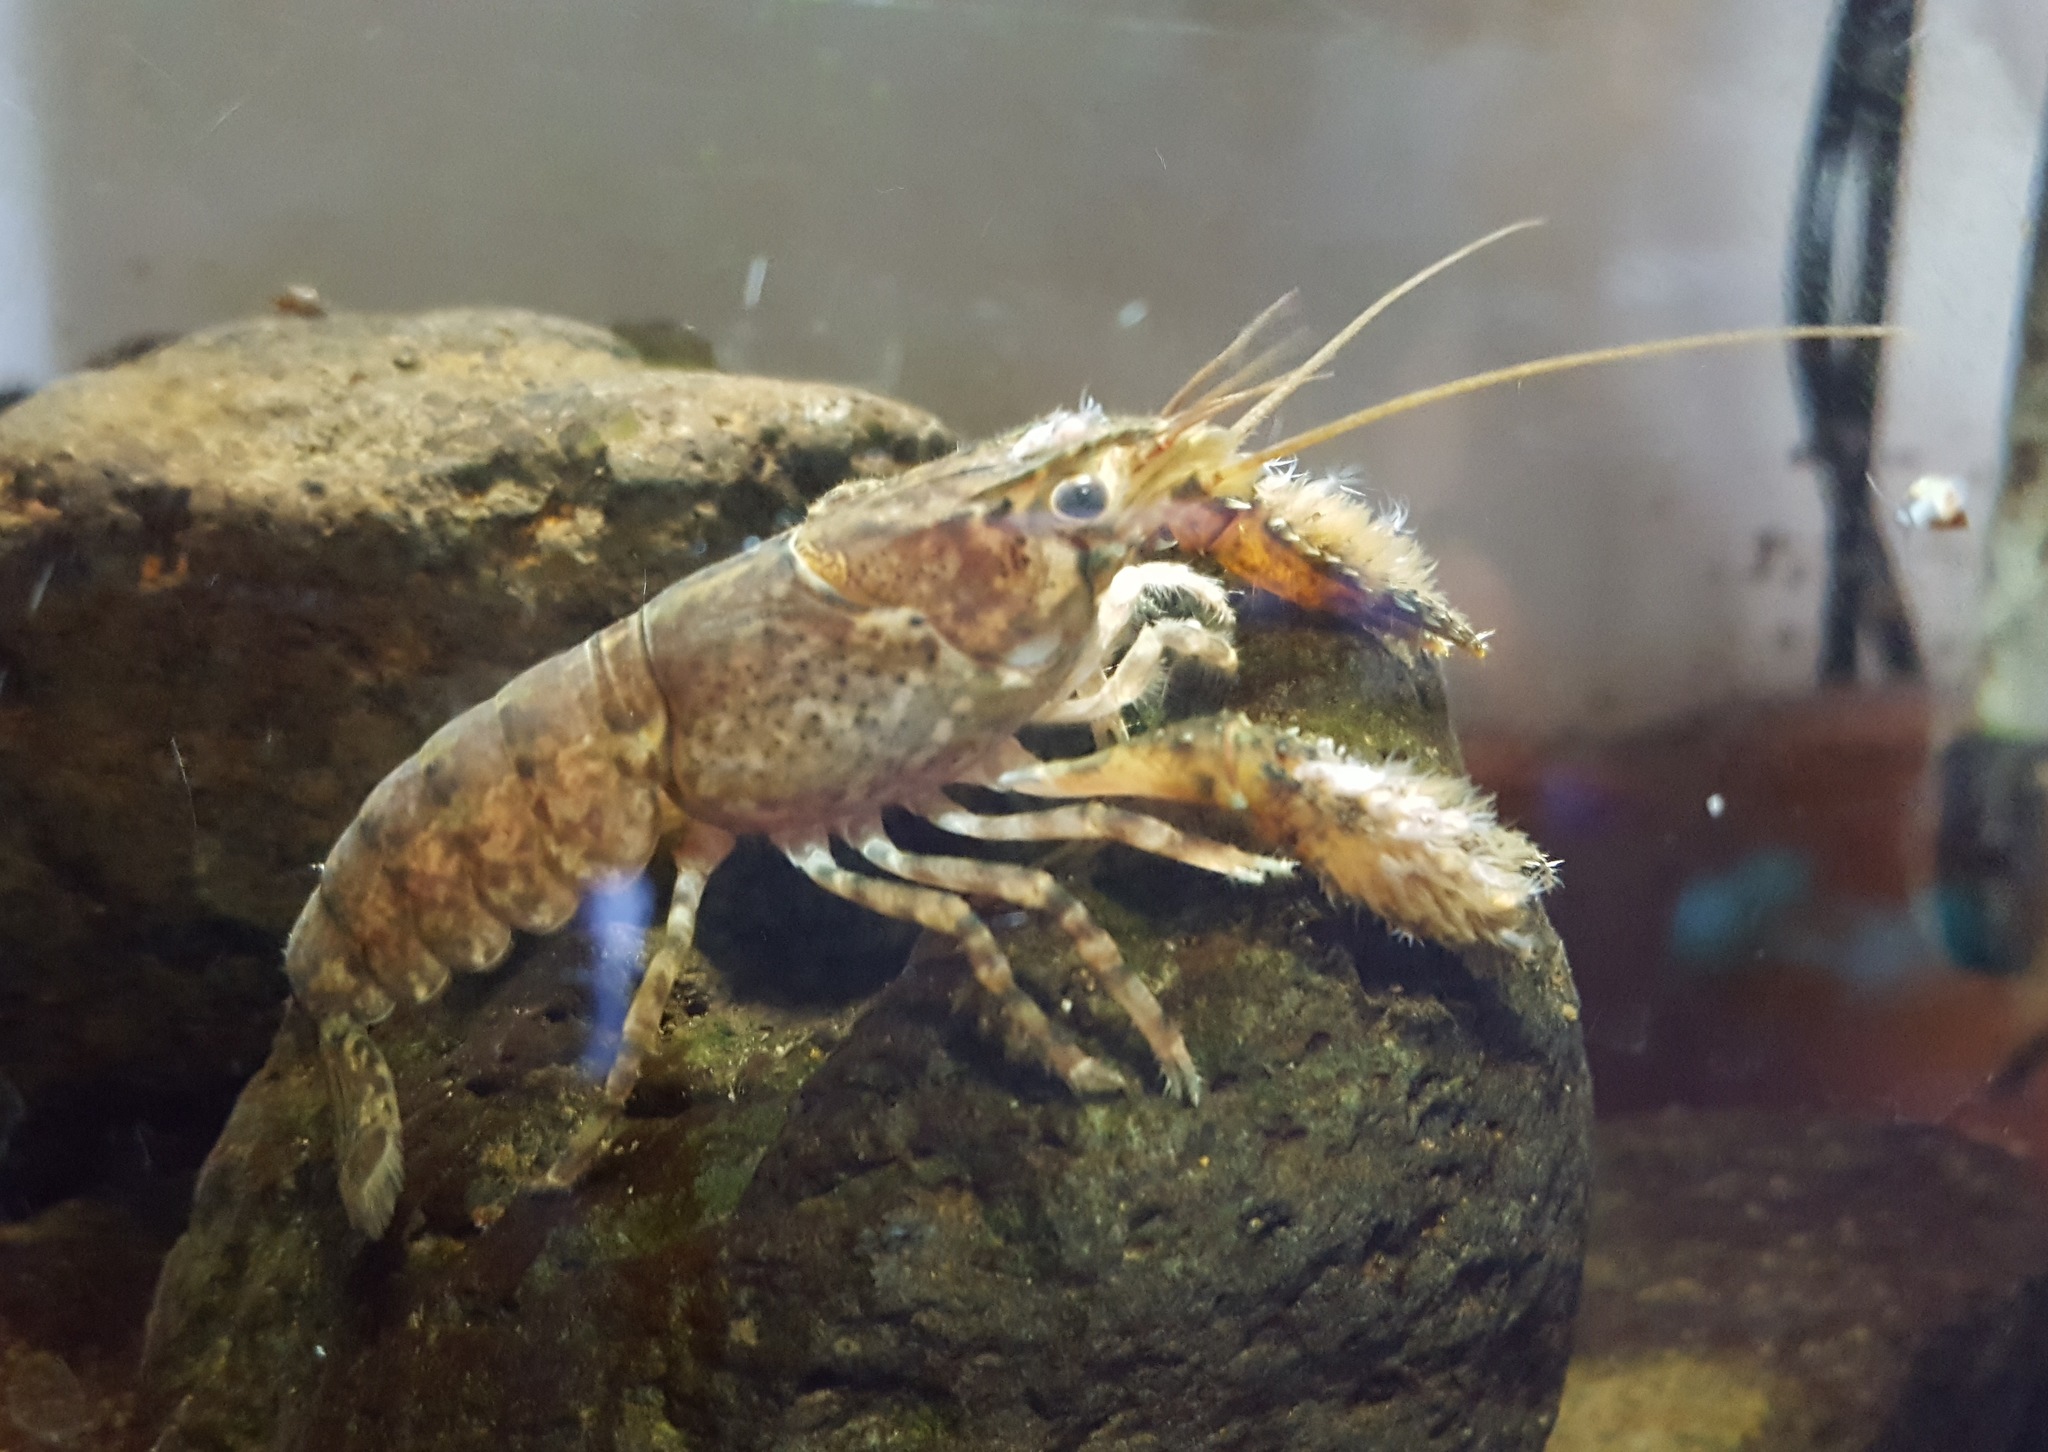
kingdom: Animalia
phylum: Arthropoda
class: Malacostraca
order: Decapoda
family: Parastacidae
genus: Paranephrops
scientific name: Paranephrops zealandicus
